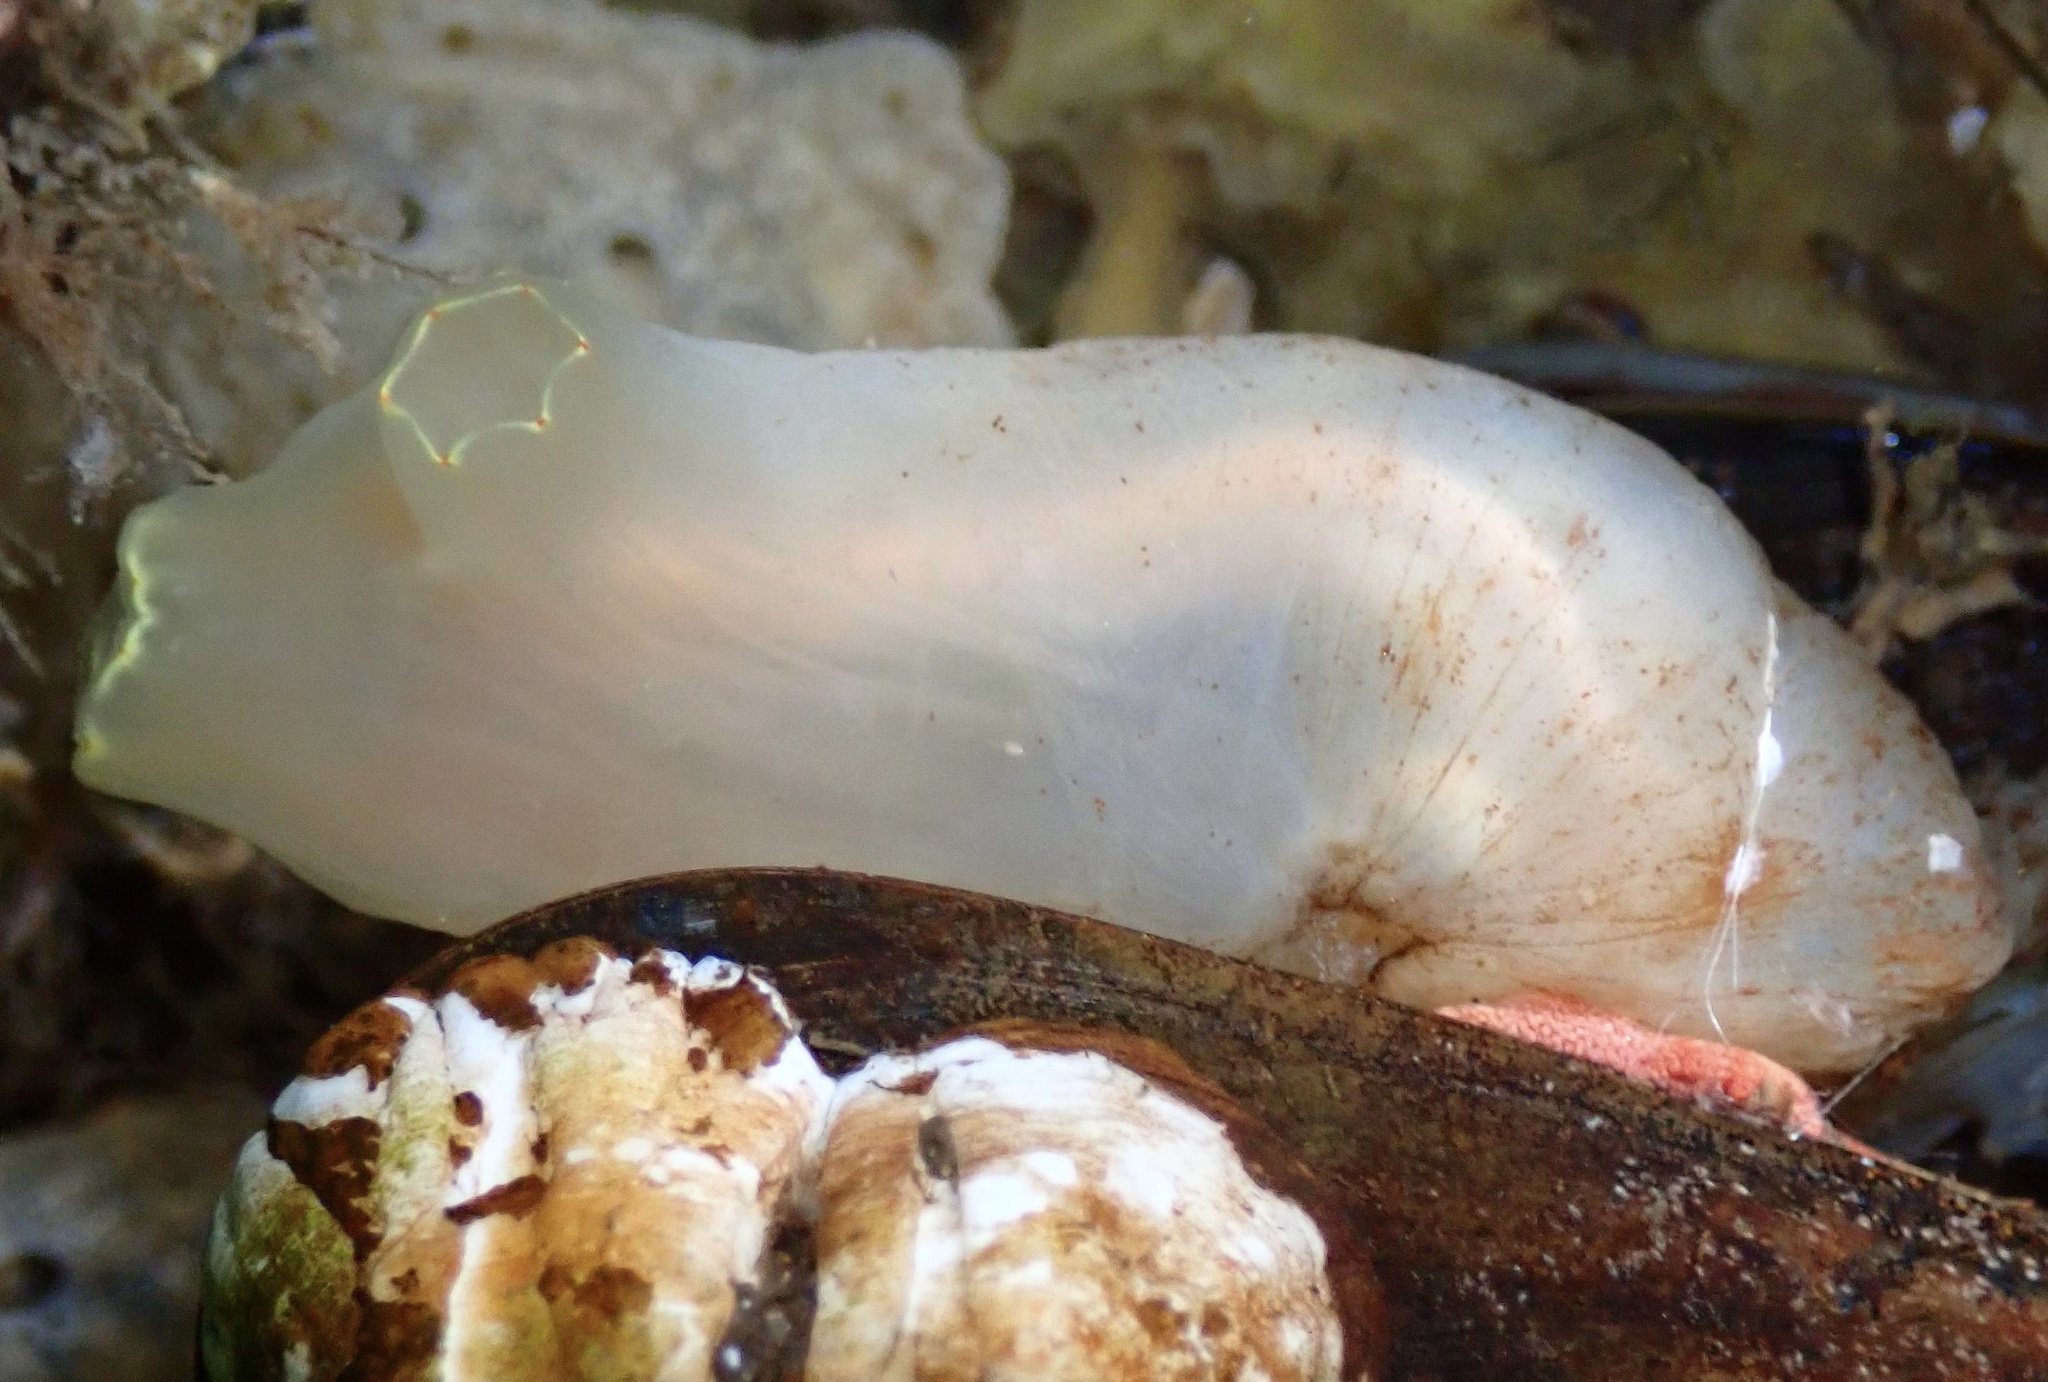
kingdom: Animalia
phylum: Chordata
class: Ascidiacea
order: Phlebobranchia
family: Cionidae
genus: Ciona
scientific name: Ciona intestinalis
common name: Vase tunicate
